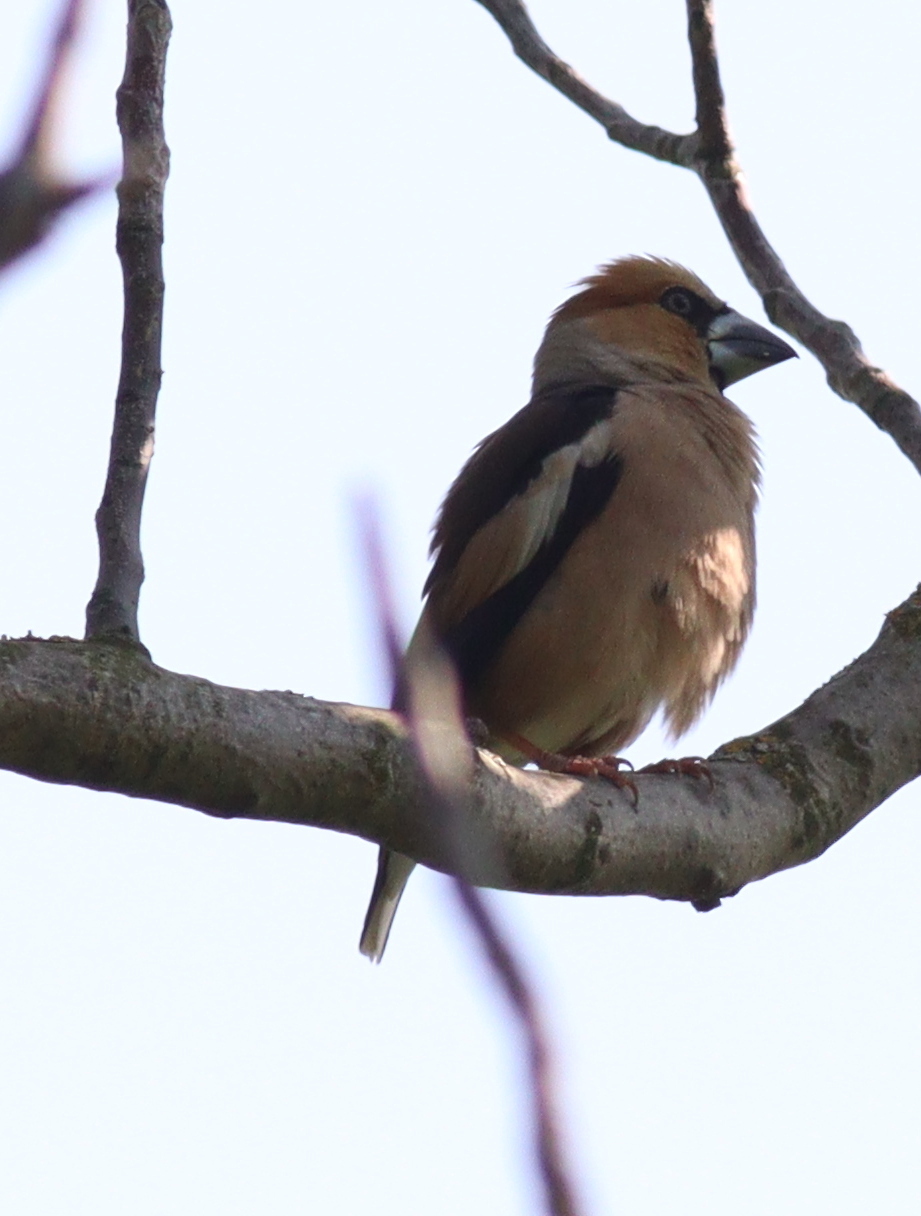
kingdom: Animalia
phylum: Chordata
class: Aves
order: Passeriformes
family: Fringillidae
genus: Coccothraustes
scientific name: Coccothraustes coccothraustes
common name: Hawfinch
